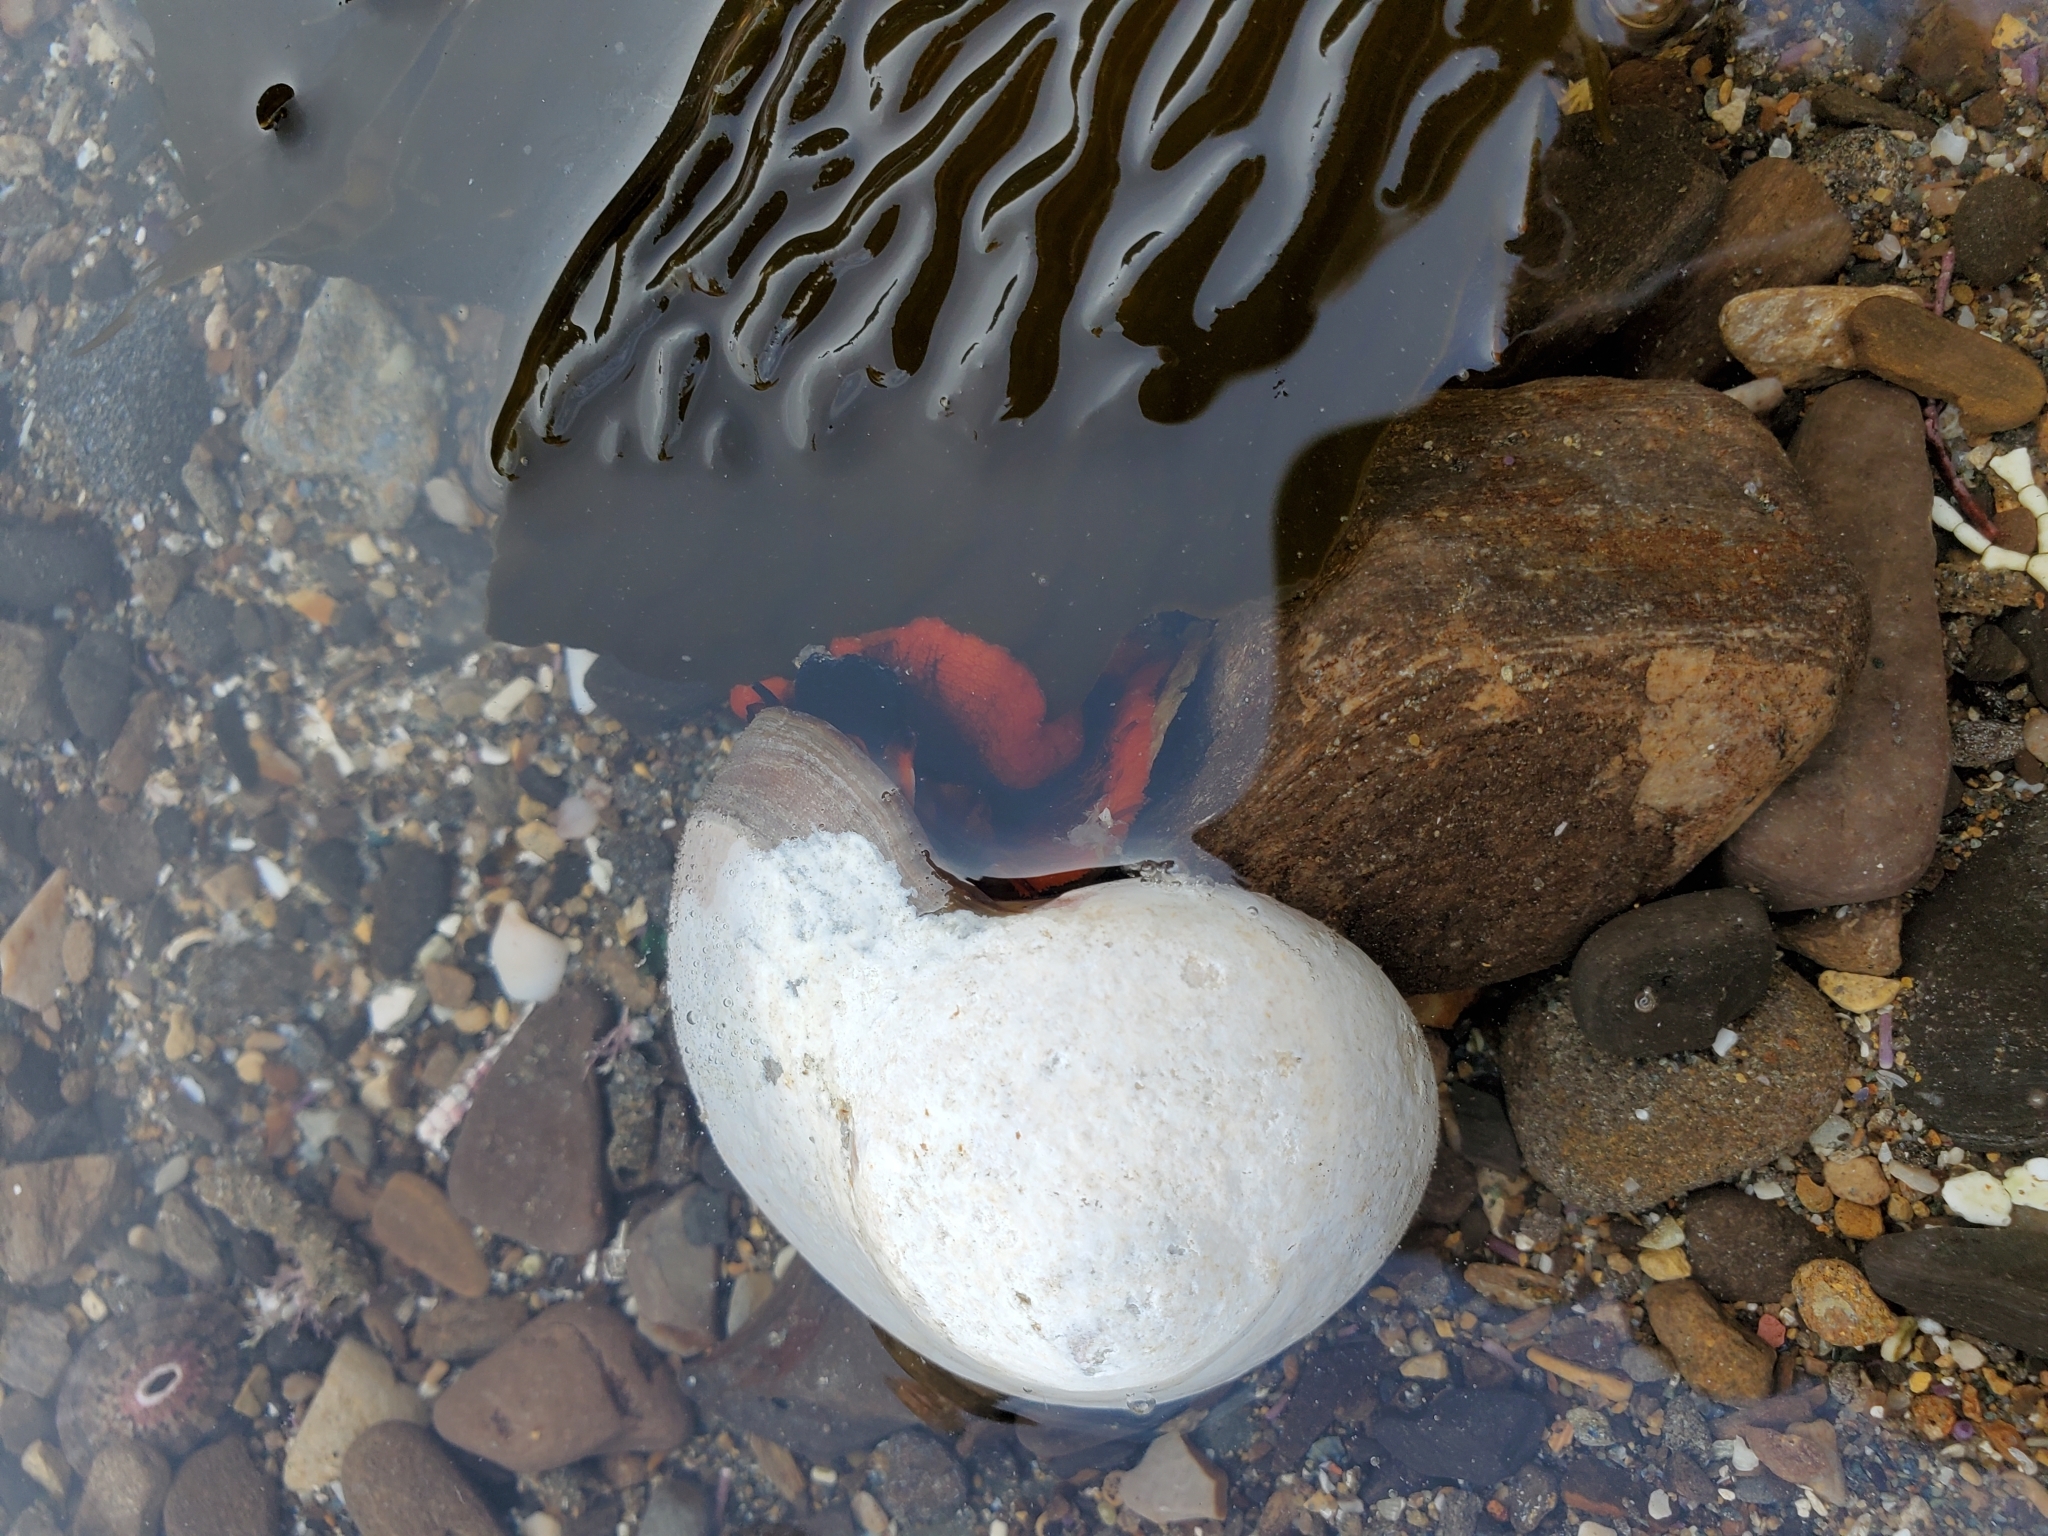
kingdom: Animalia
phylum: Mollusca
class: Gastropoda
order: Trochida
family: Tegulidae
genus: Norrisia
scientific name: Norrisia norrisii
